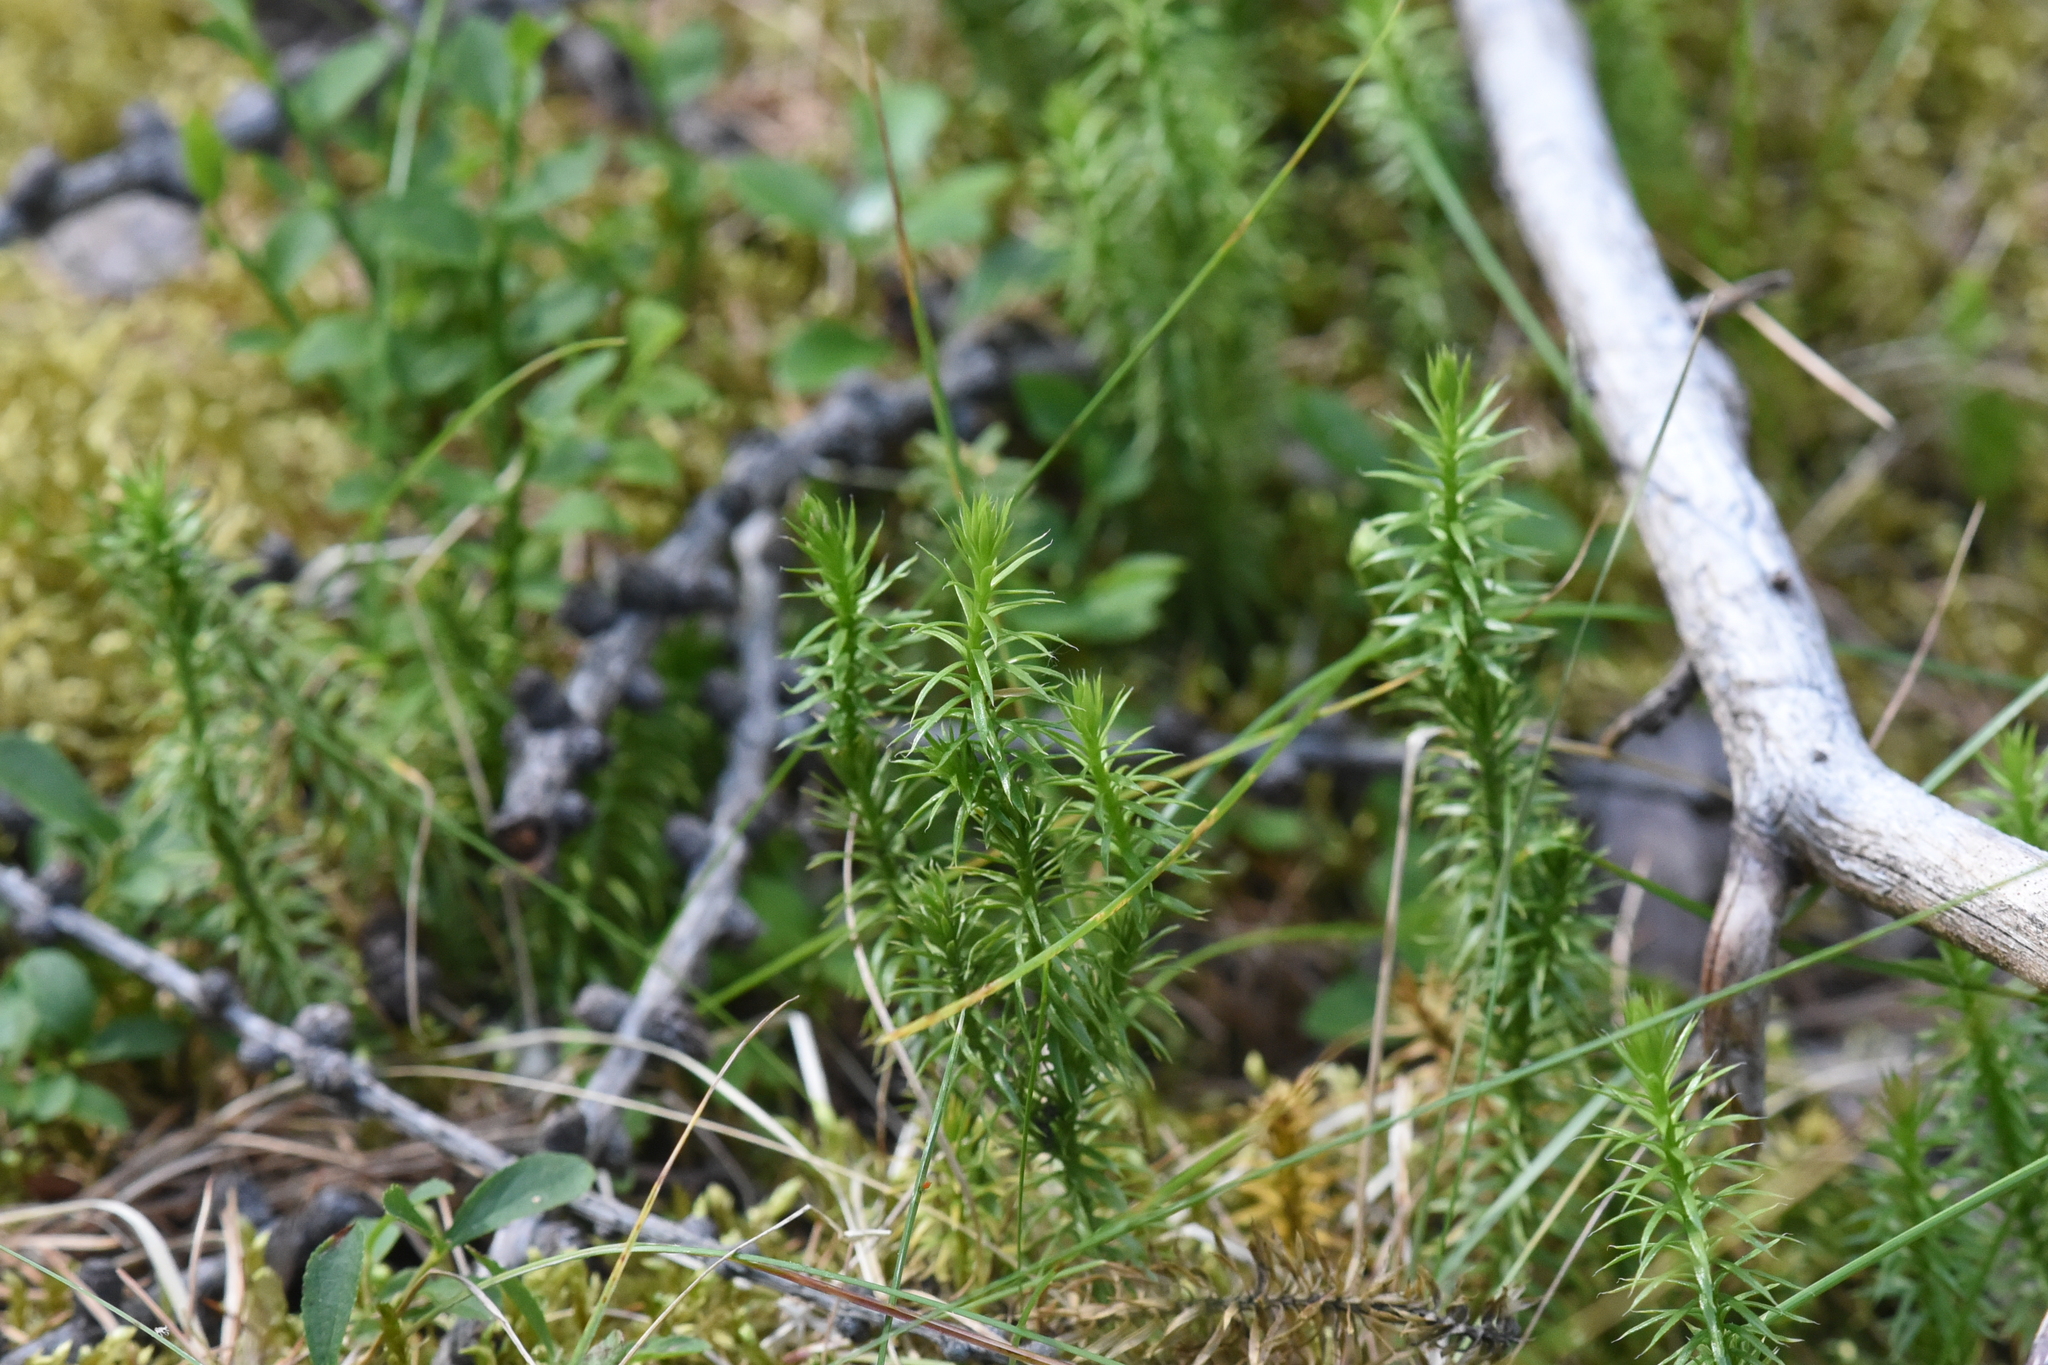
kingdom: Plantae
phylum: Tracheophyta
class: Lycopodiopsida
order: Lycopodiales
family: Lycopodiaceae
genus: Spinulum
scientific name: Spinulum annotinum
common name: Interrupted club-moss
